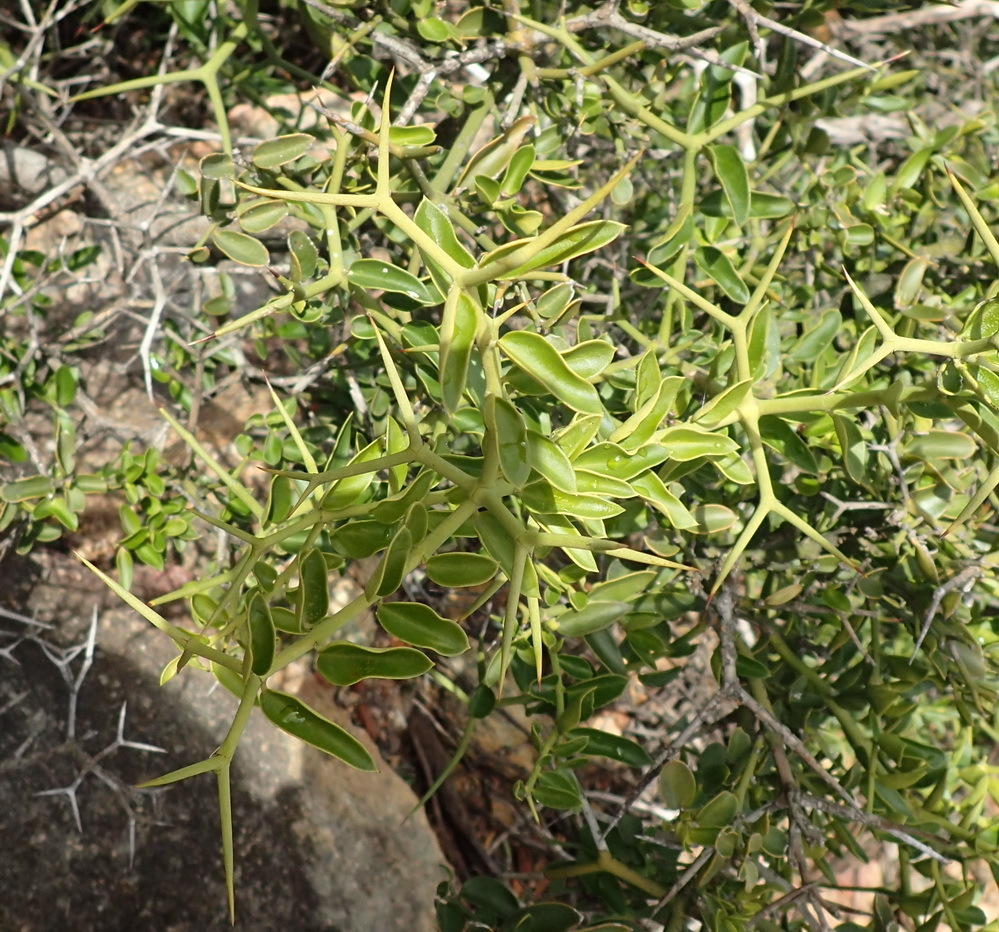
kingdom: Plantae
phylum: Tracheophyta
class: Magnoliopsida
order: Gentianales
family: Apocynaceae
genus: Carissa
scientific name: Carissa haematocarpa
